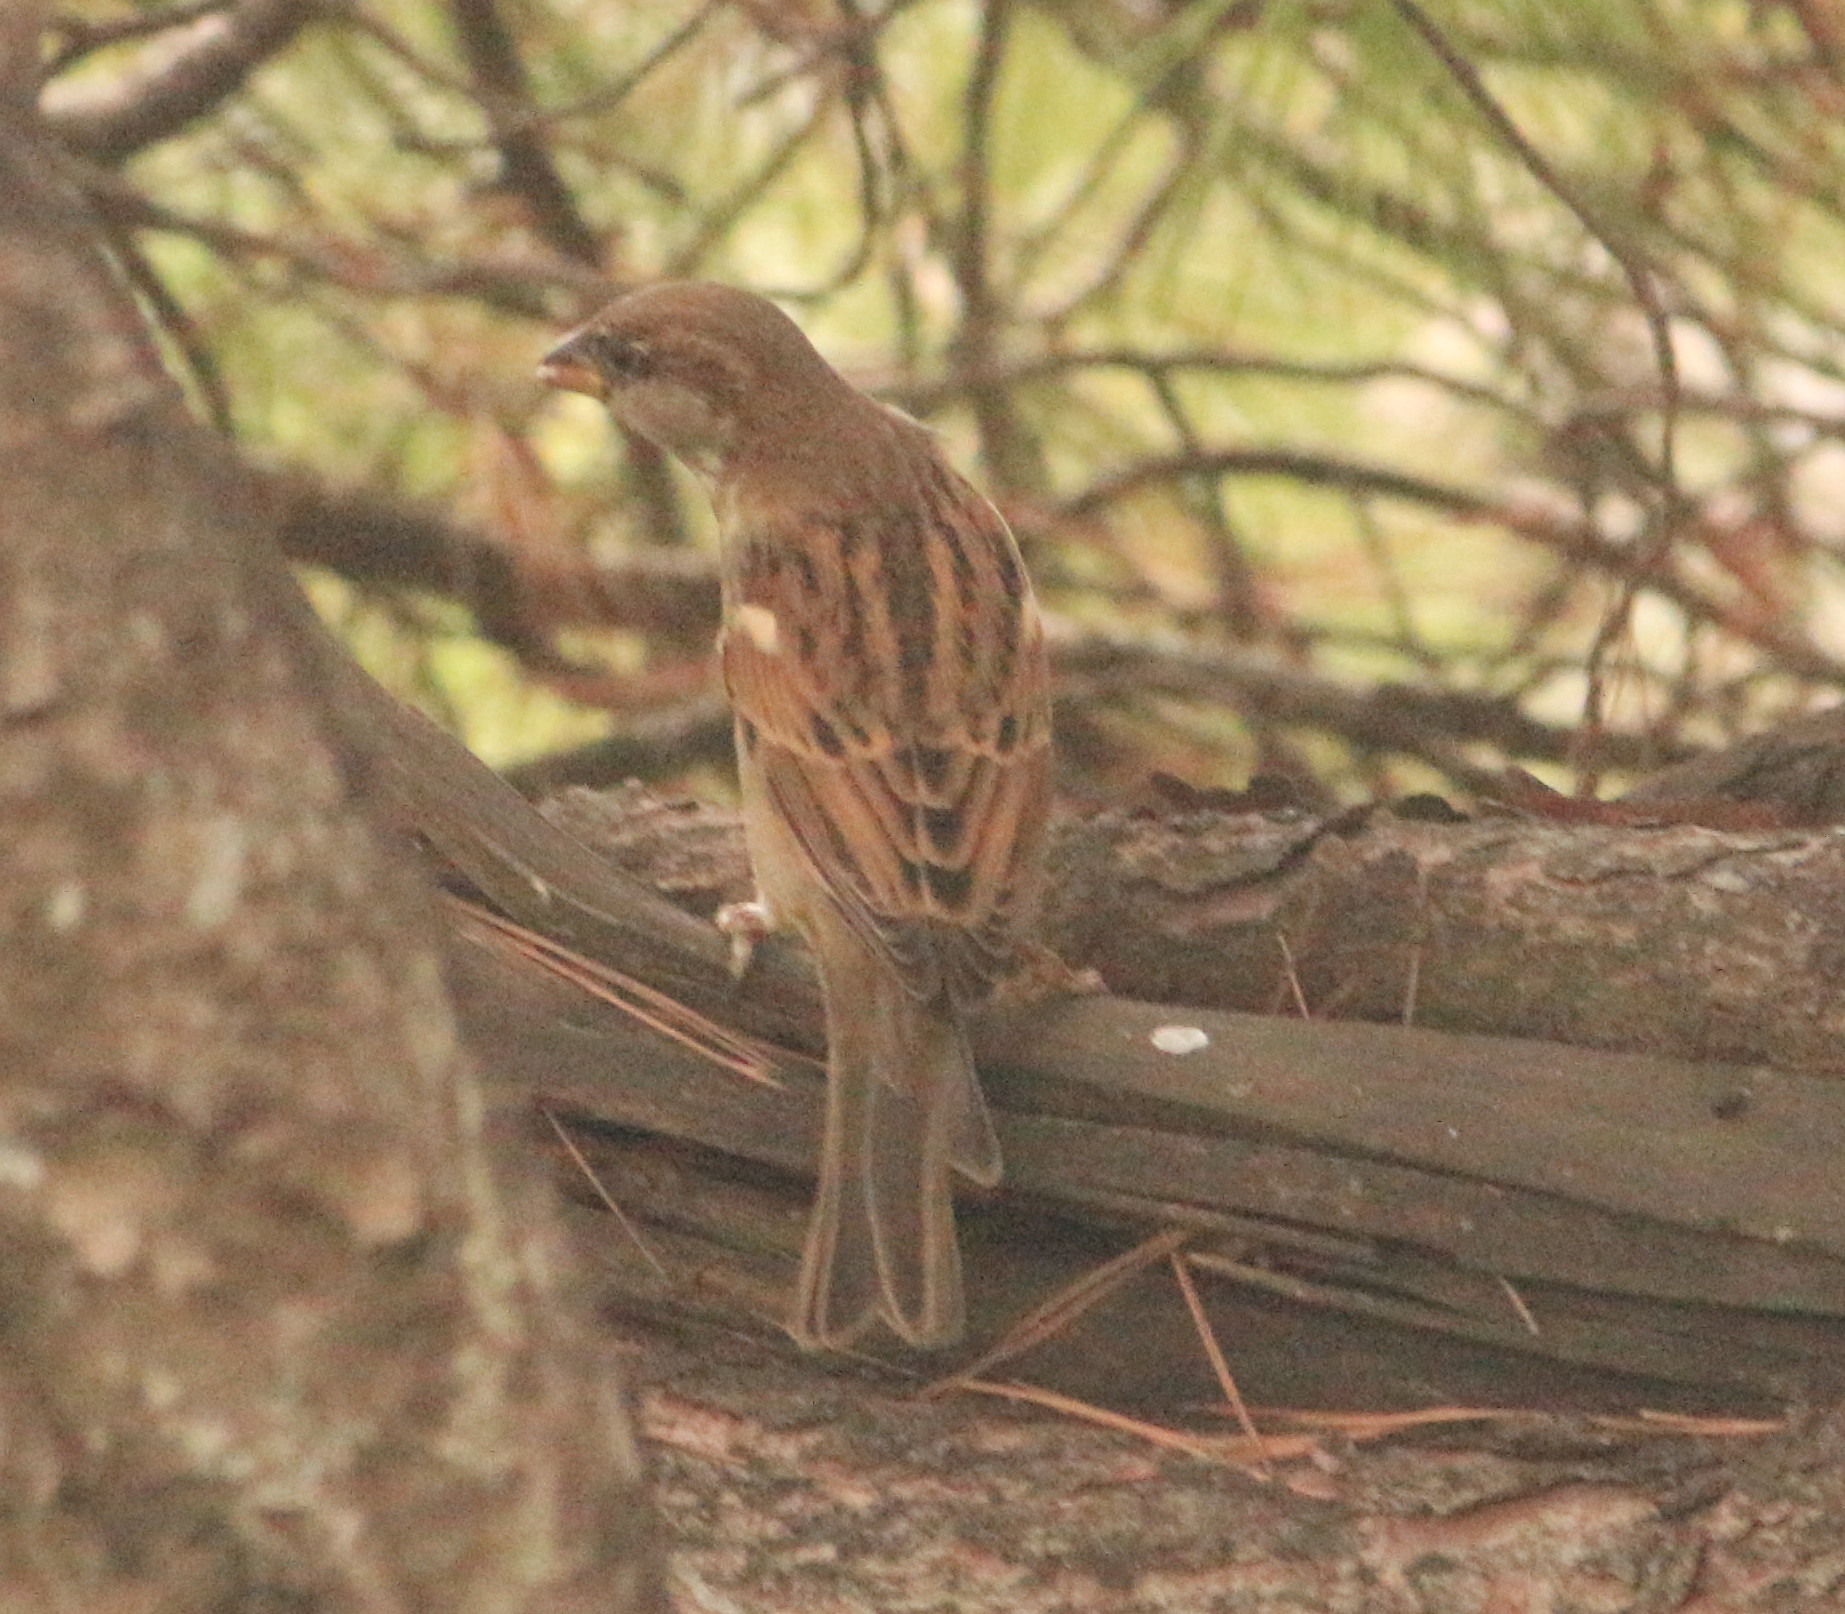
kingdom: Animalia
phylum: Chordata
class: Aves
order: Passeriformes
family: Passeridae
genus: Passer
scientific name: Passer domesticus
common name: House sparrow
